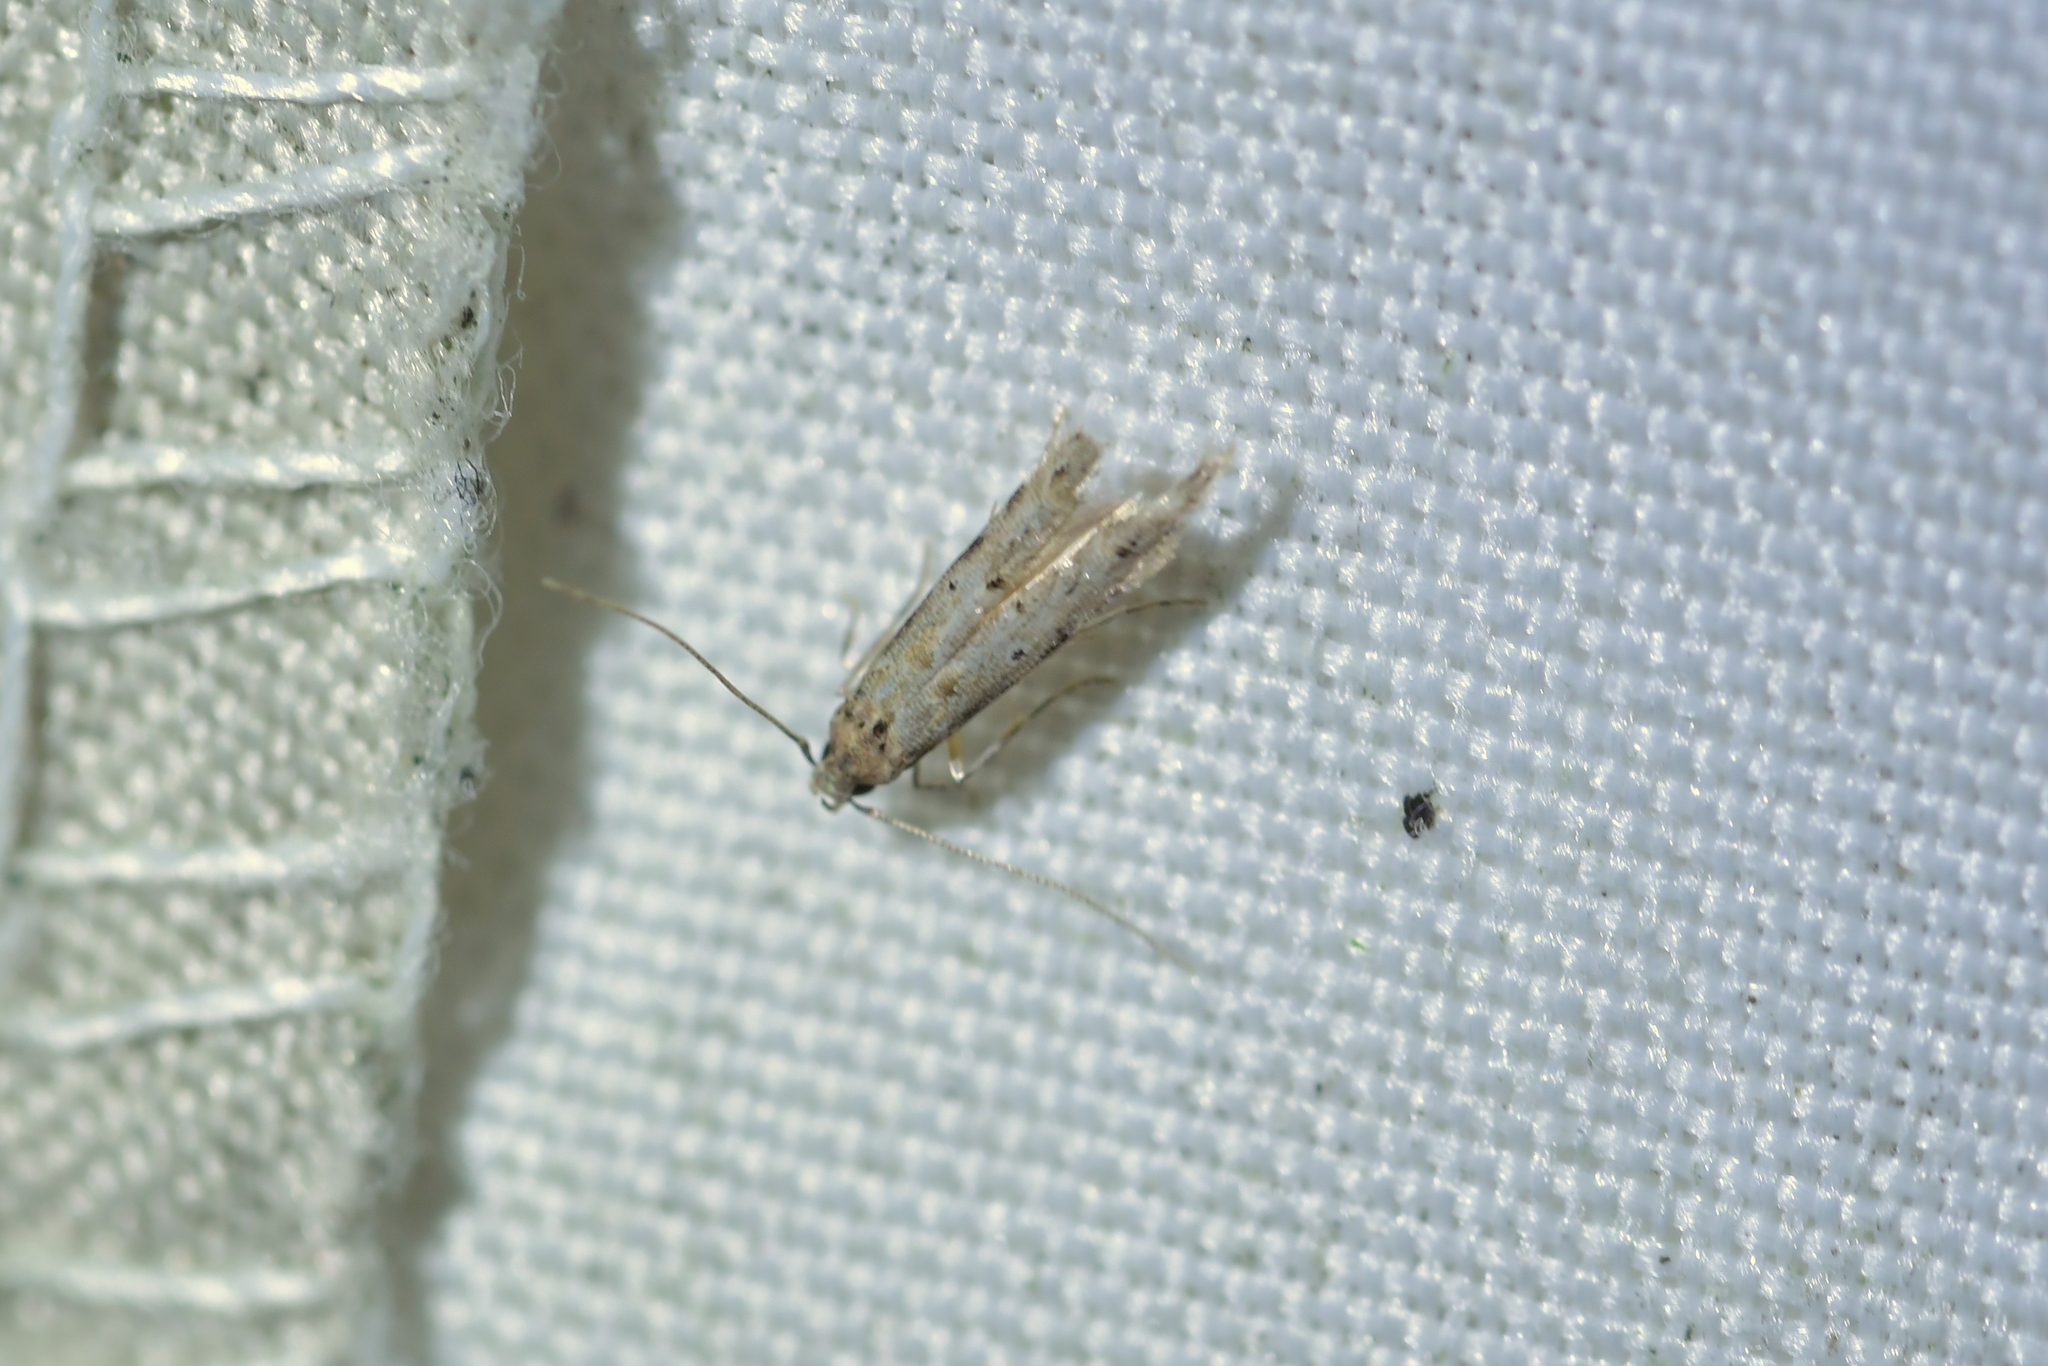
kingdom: Animalia
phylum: Arthropoda
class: Insecta
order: Lepidoptera
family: Elachistidae
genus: Microcolona
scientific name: Microcolona limodes
